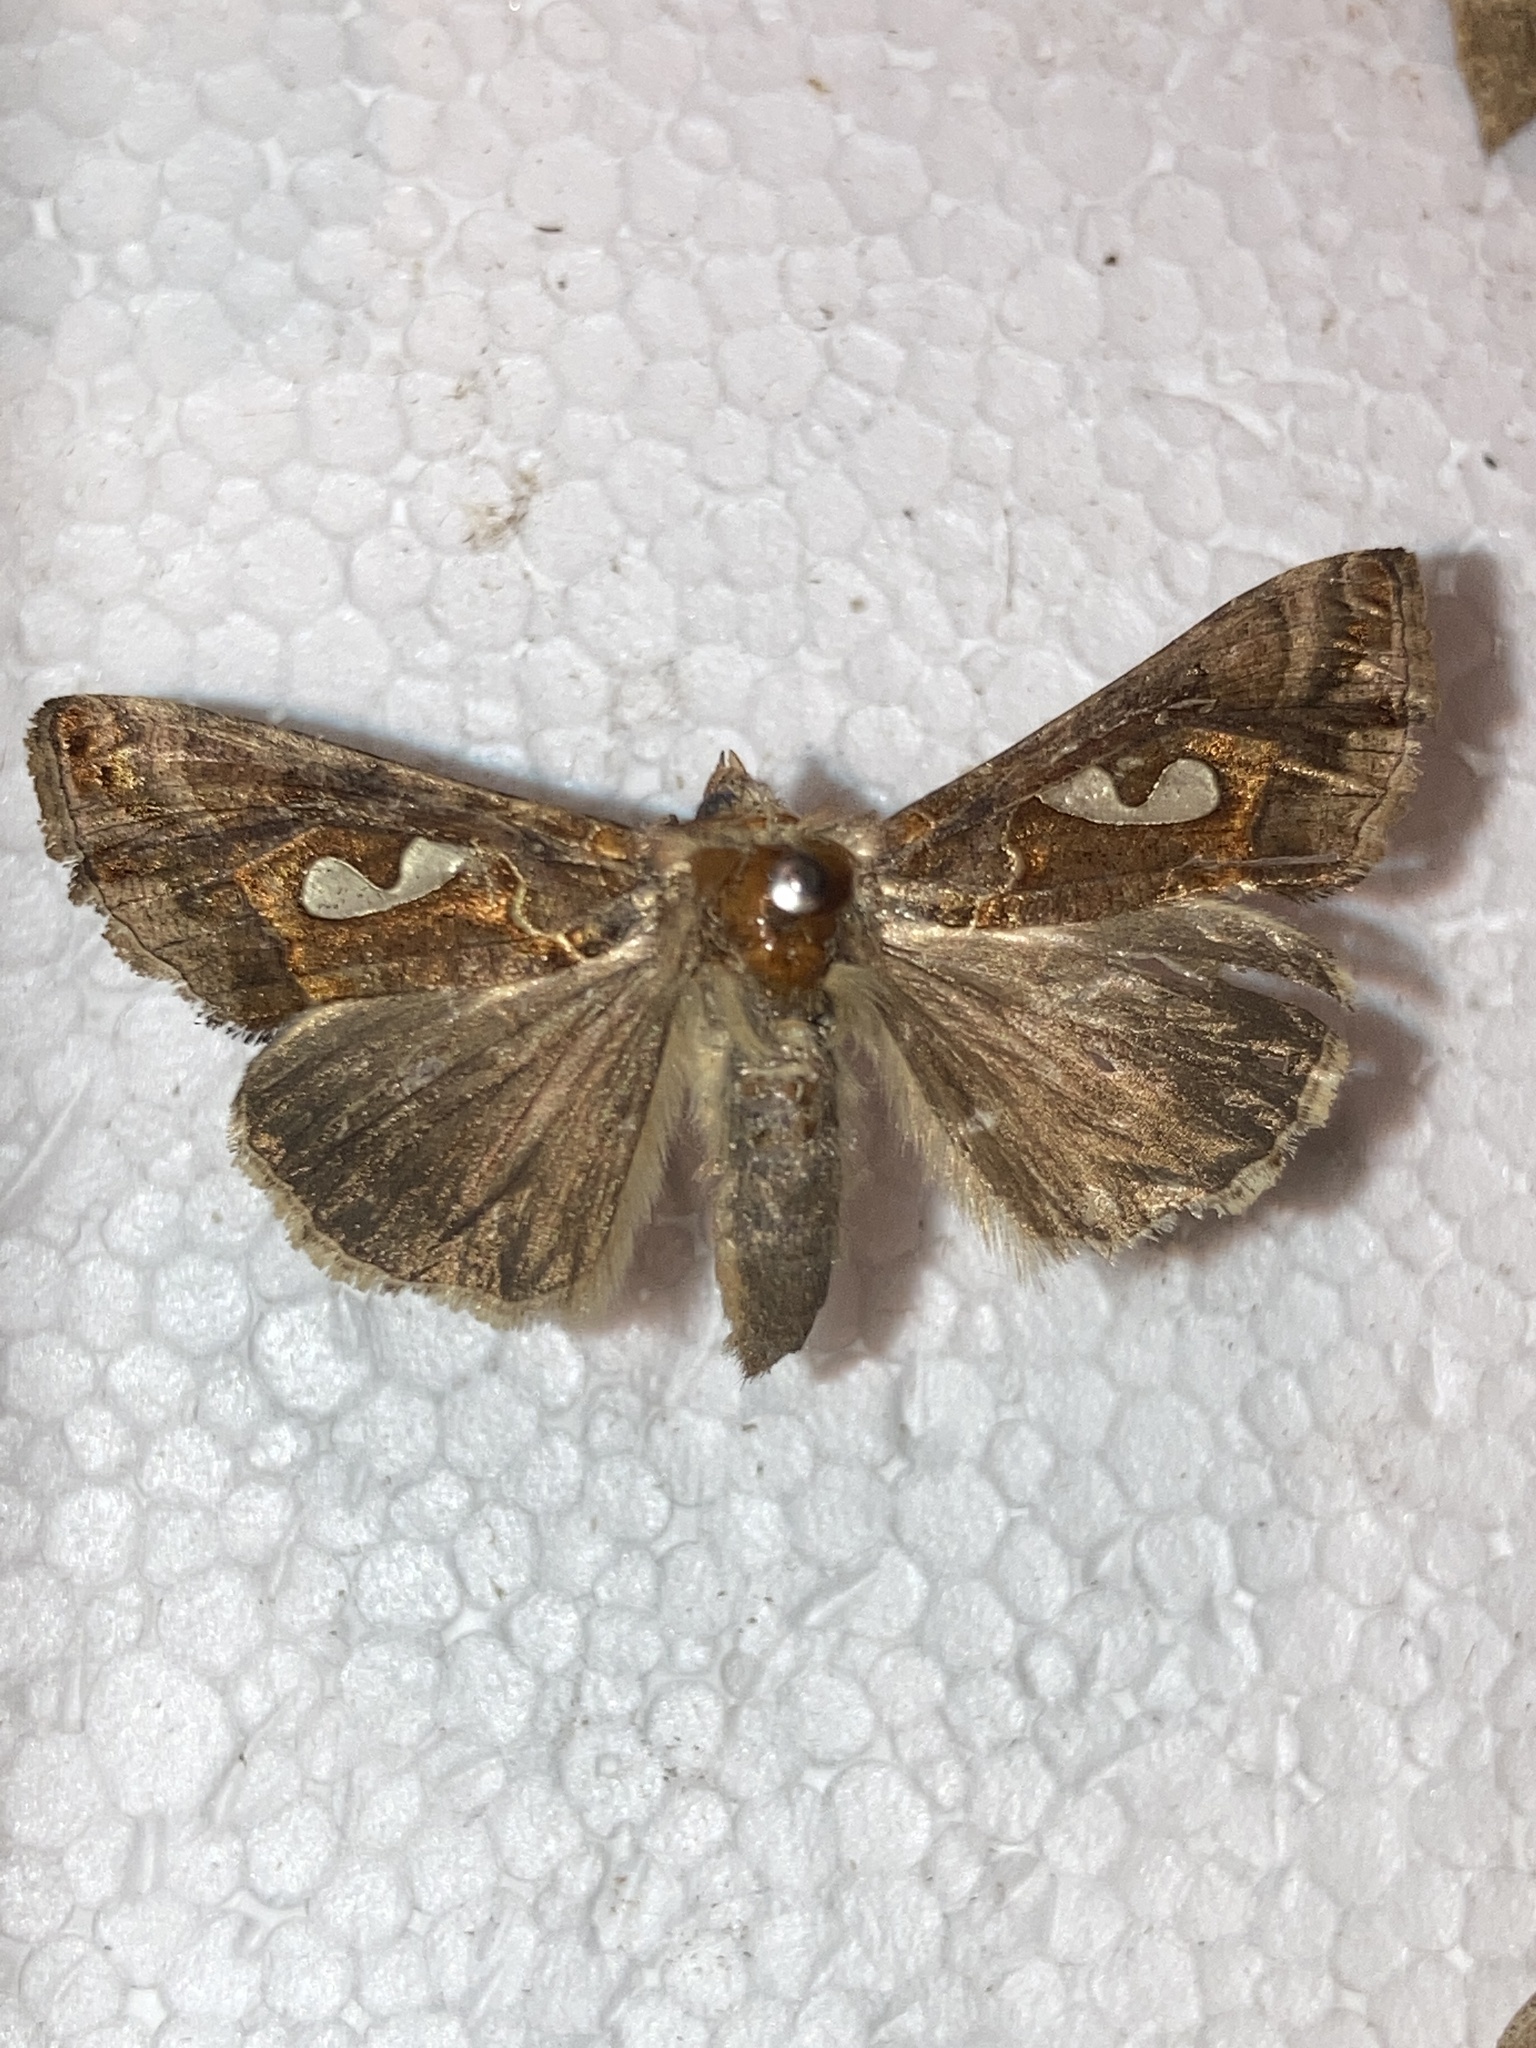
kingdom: Animalia
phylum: Arthropoda
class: Insecta
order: Lepidoptera
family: Noctuidae
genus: Megalographa
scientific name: Megalographa biloba
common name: Cutworm
